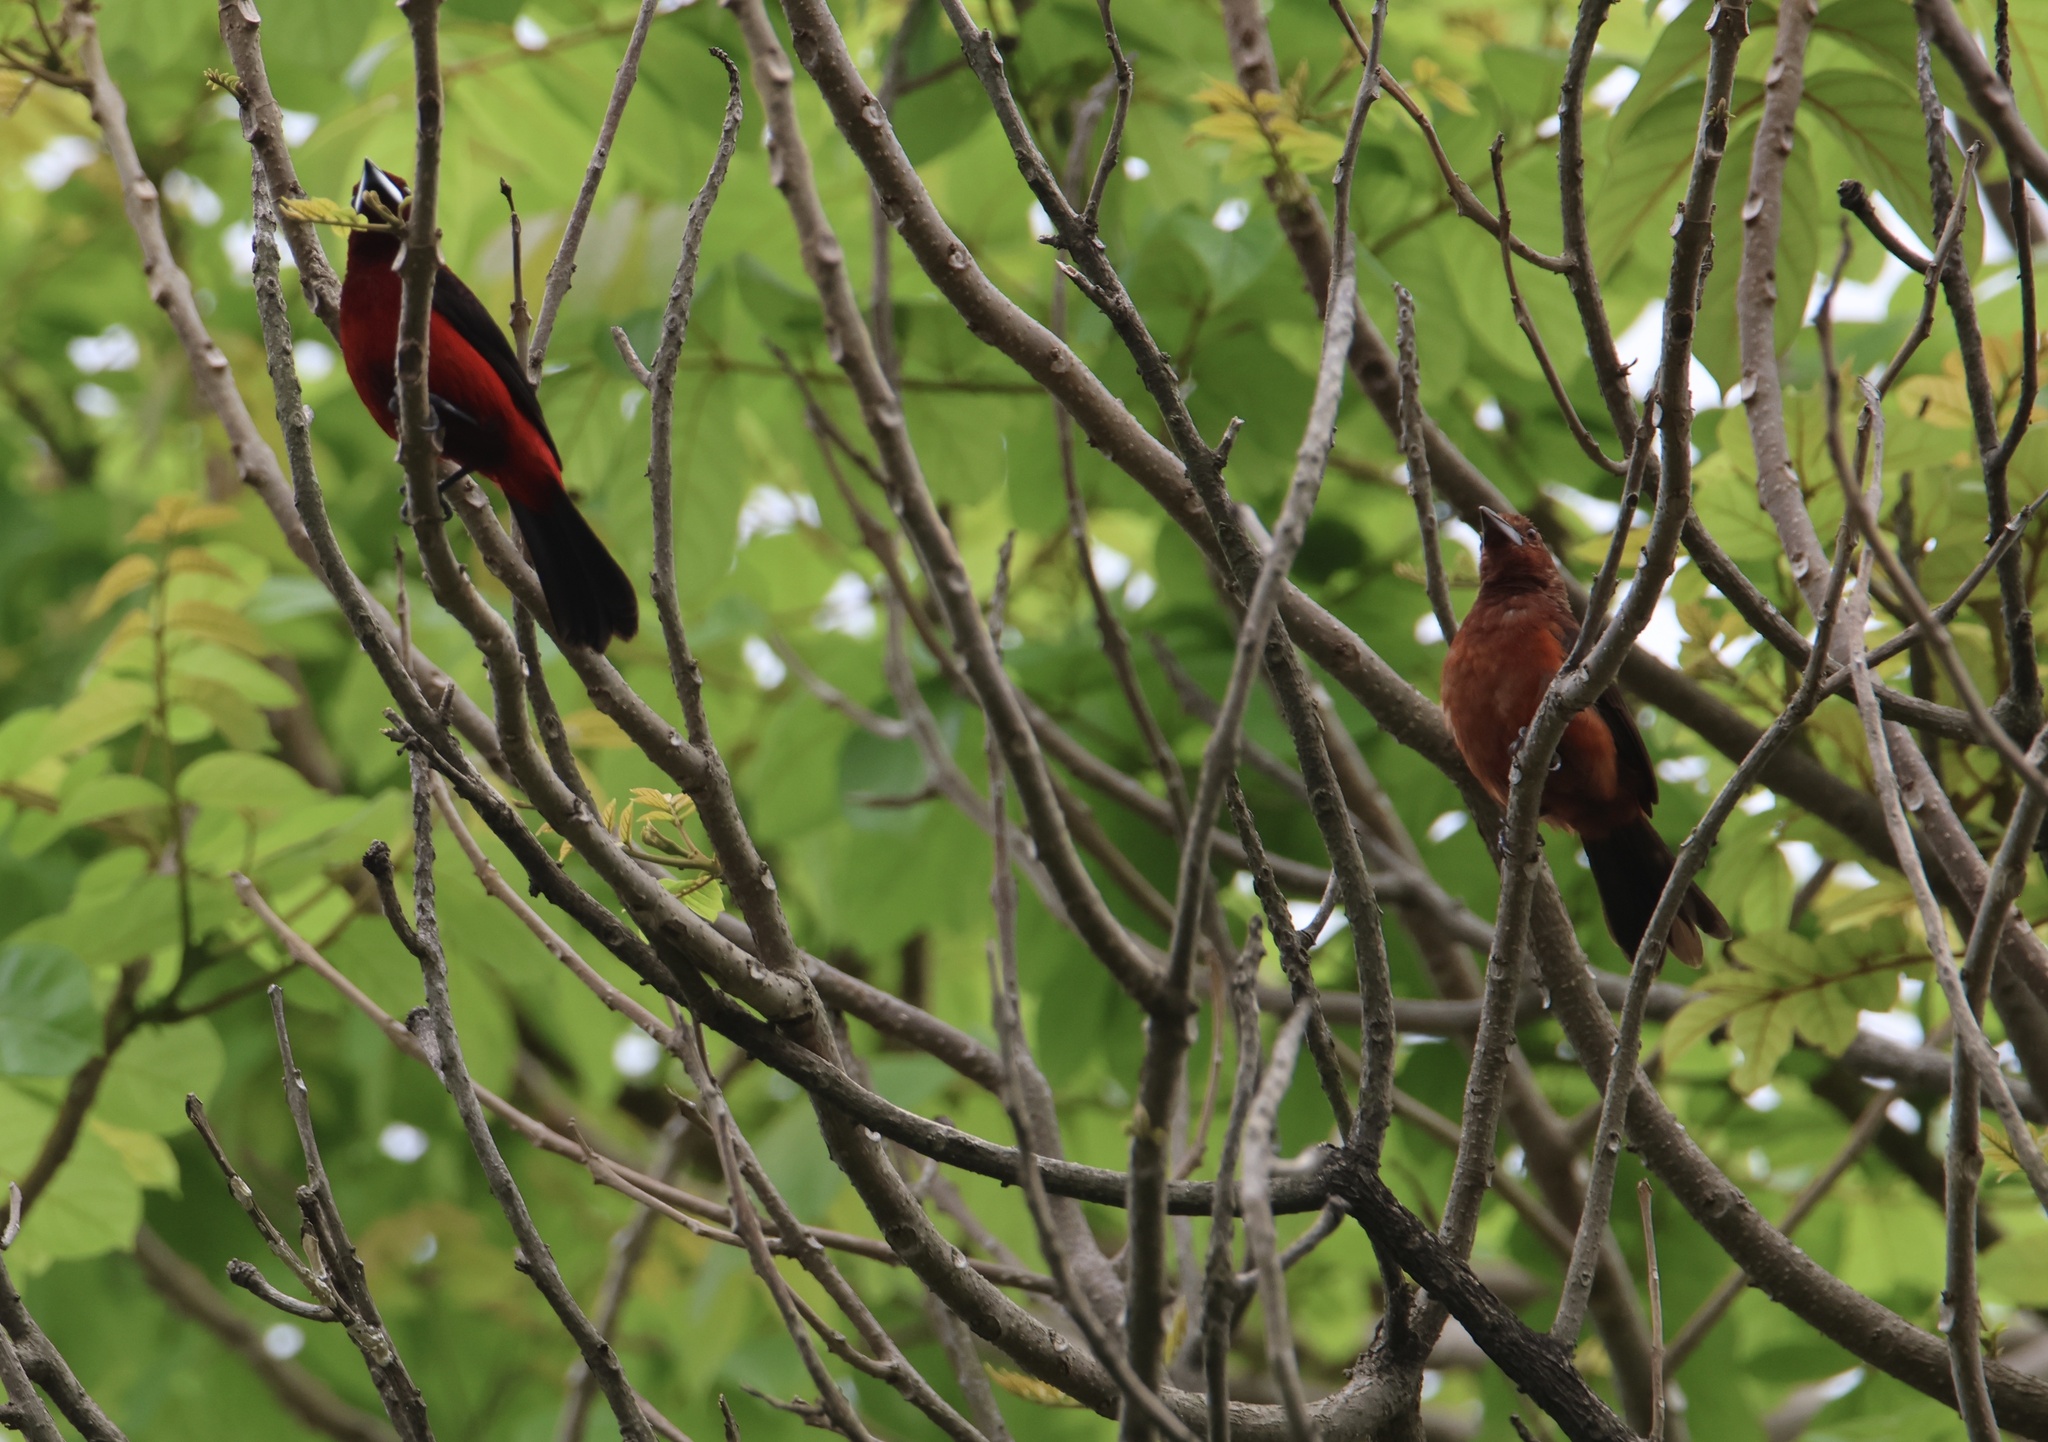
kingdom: Animalia
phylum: Chordata
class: Aves
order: Passeriformes
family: Thraupidae
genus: Ramphocelus
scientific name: Ramphocelus dimidiatus
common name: Crimson-backed tanager
